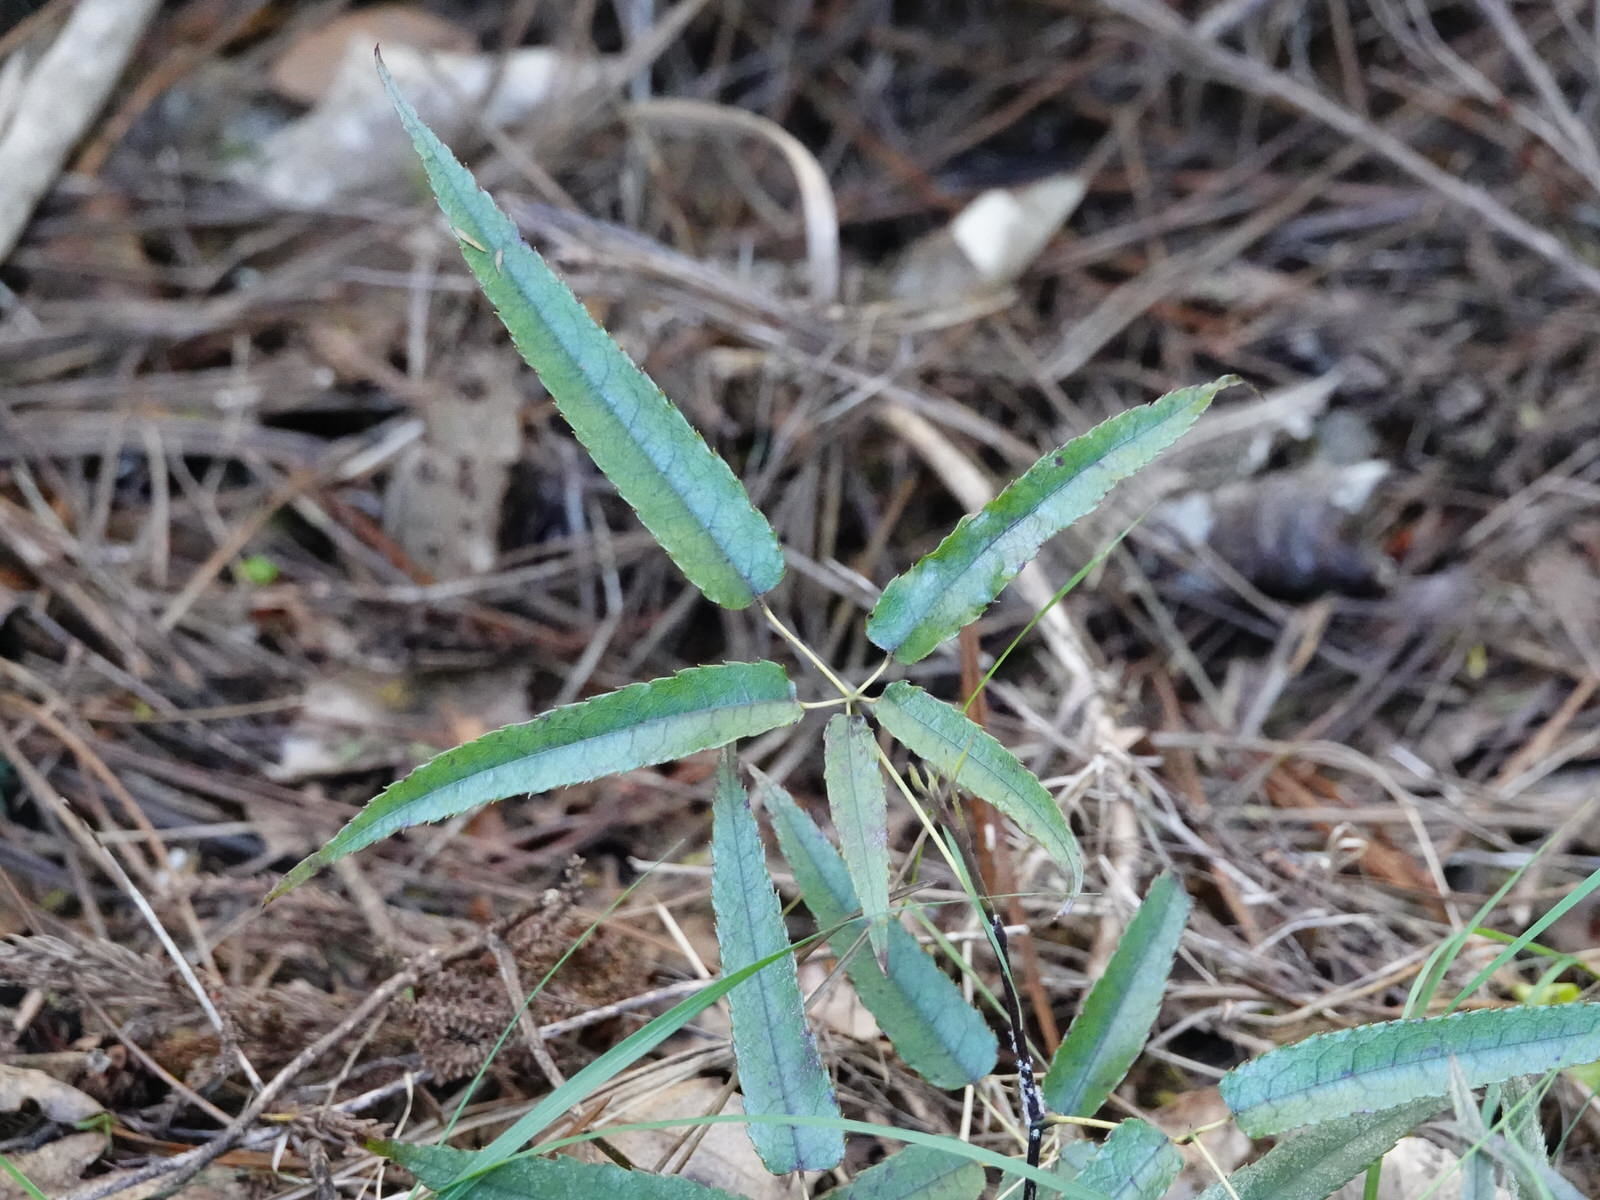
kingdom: Plantae
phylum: Tracheophyta
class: Magnoliopsida
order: Rosales
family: Rosaceae
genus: Rubus
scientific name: Rubus cissoides
